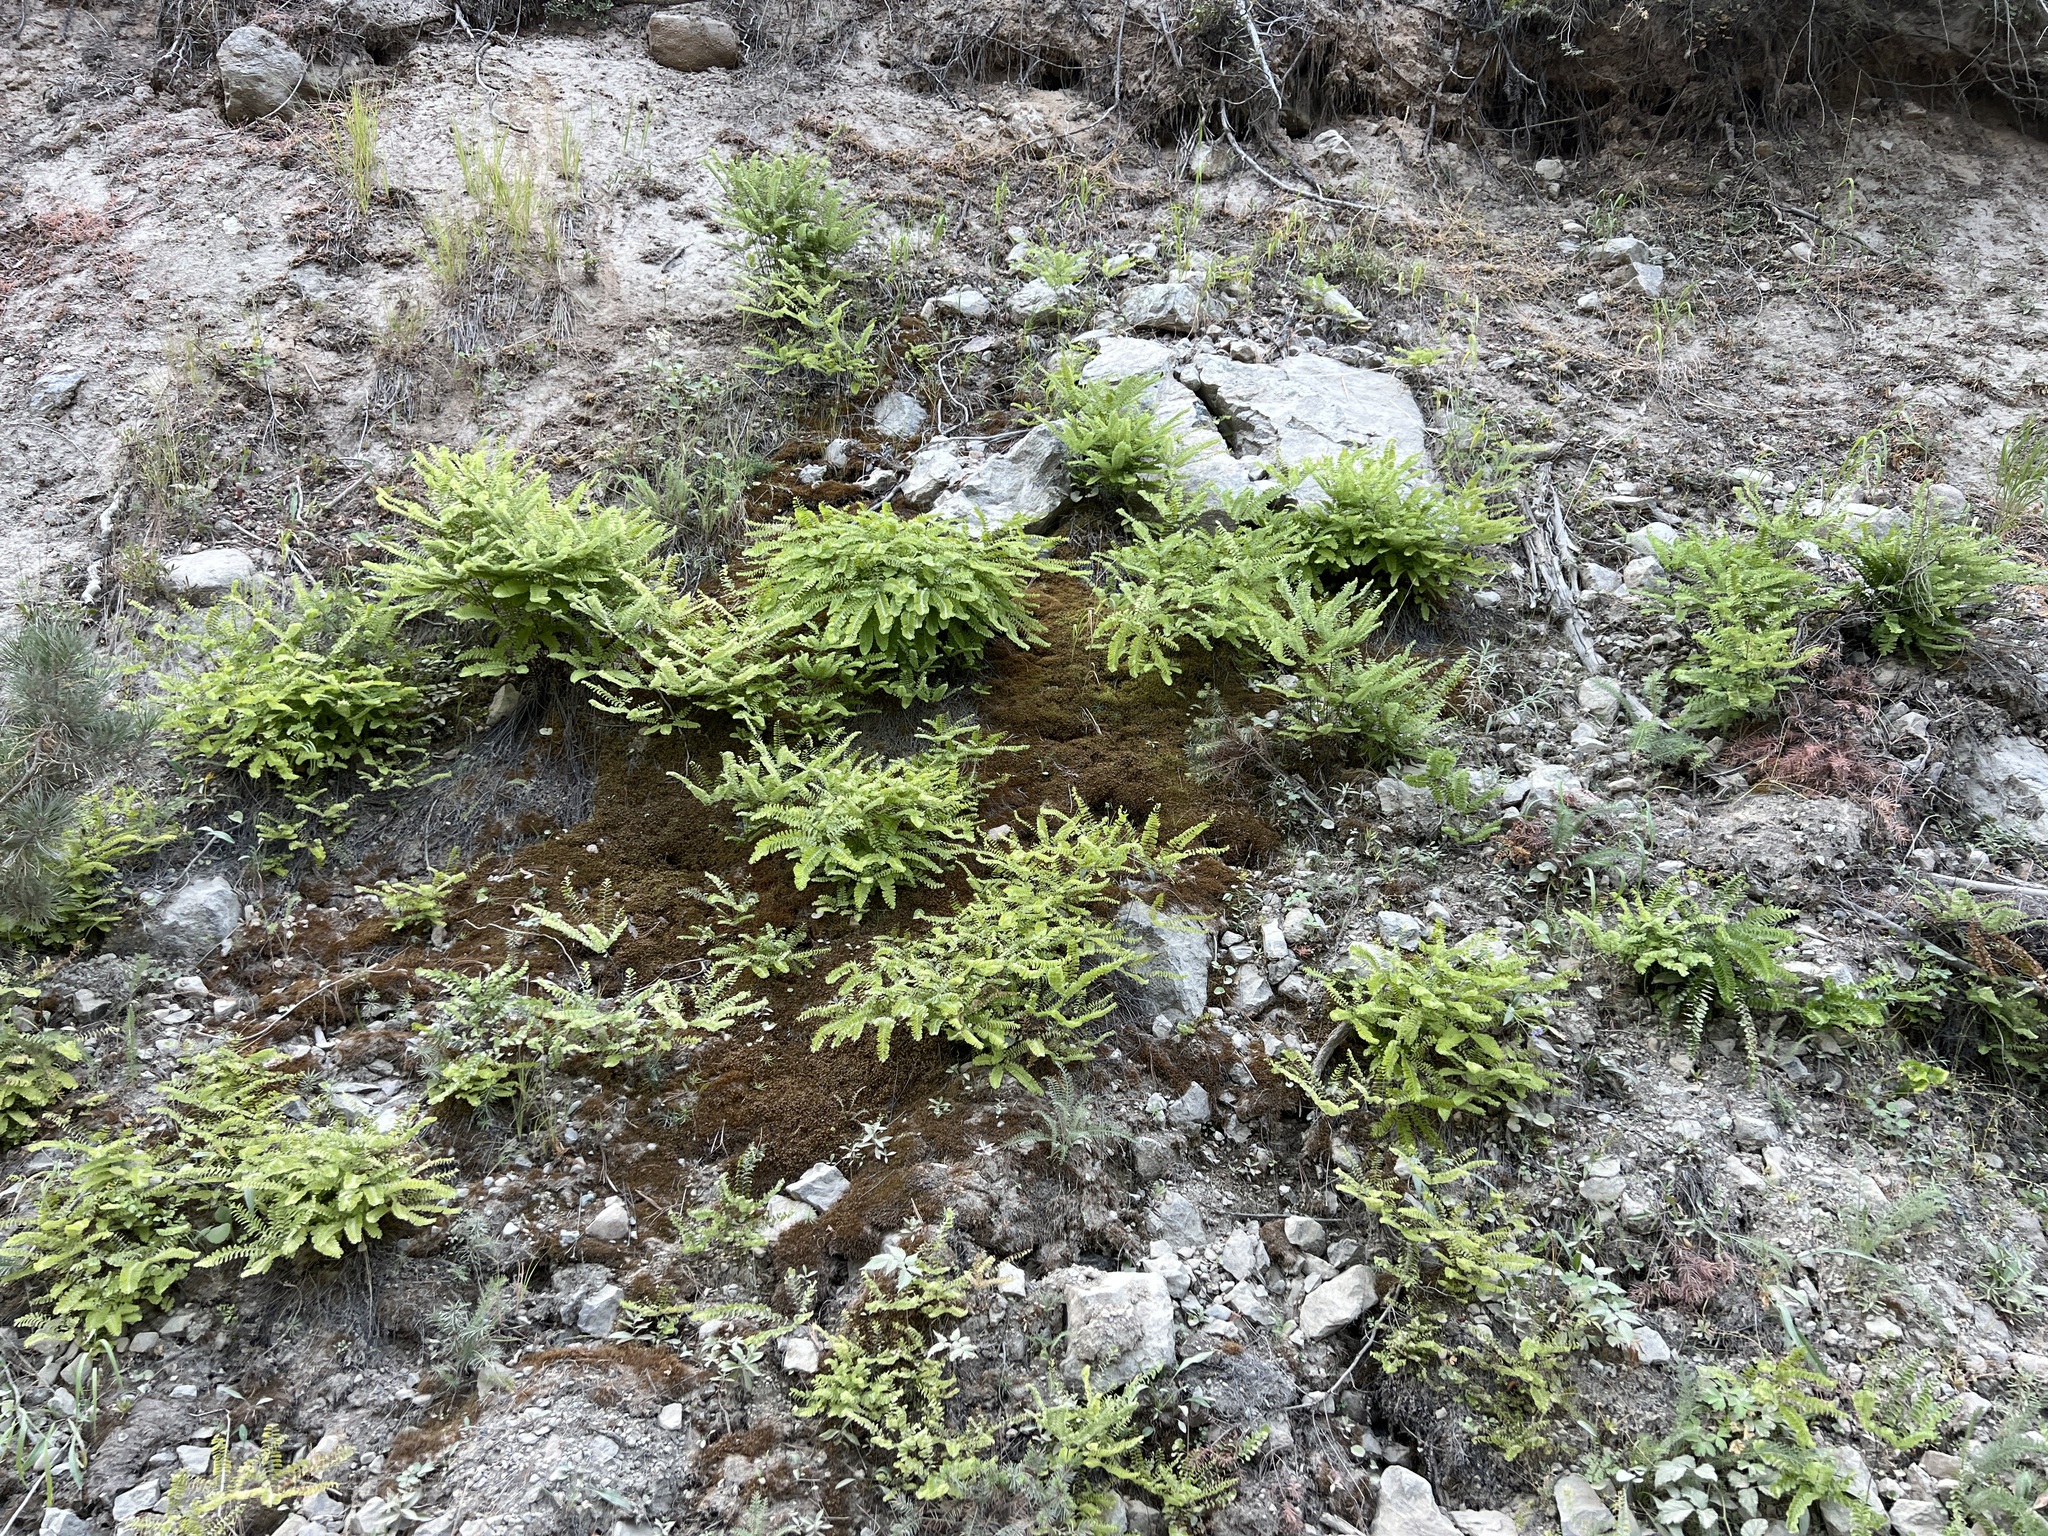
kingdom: Plantae
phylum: Tracheophyta
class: Polypodiopsida
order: Polypodiales
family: Pteridaceae
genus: Adiantum
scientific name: Adiantum aleuticum
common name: Aleutian maidenhair fern
